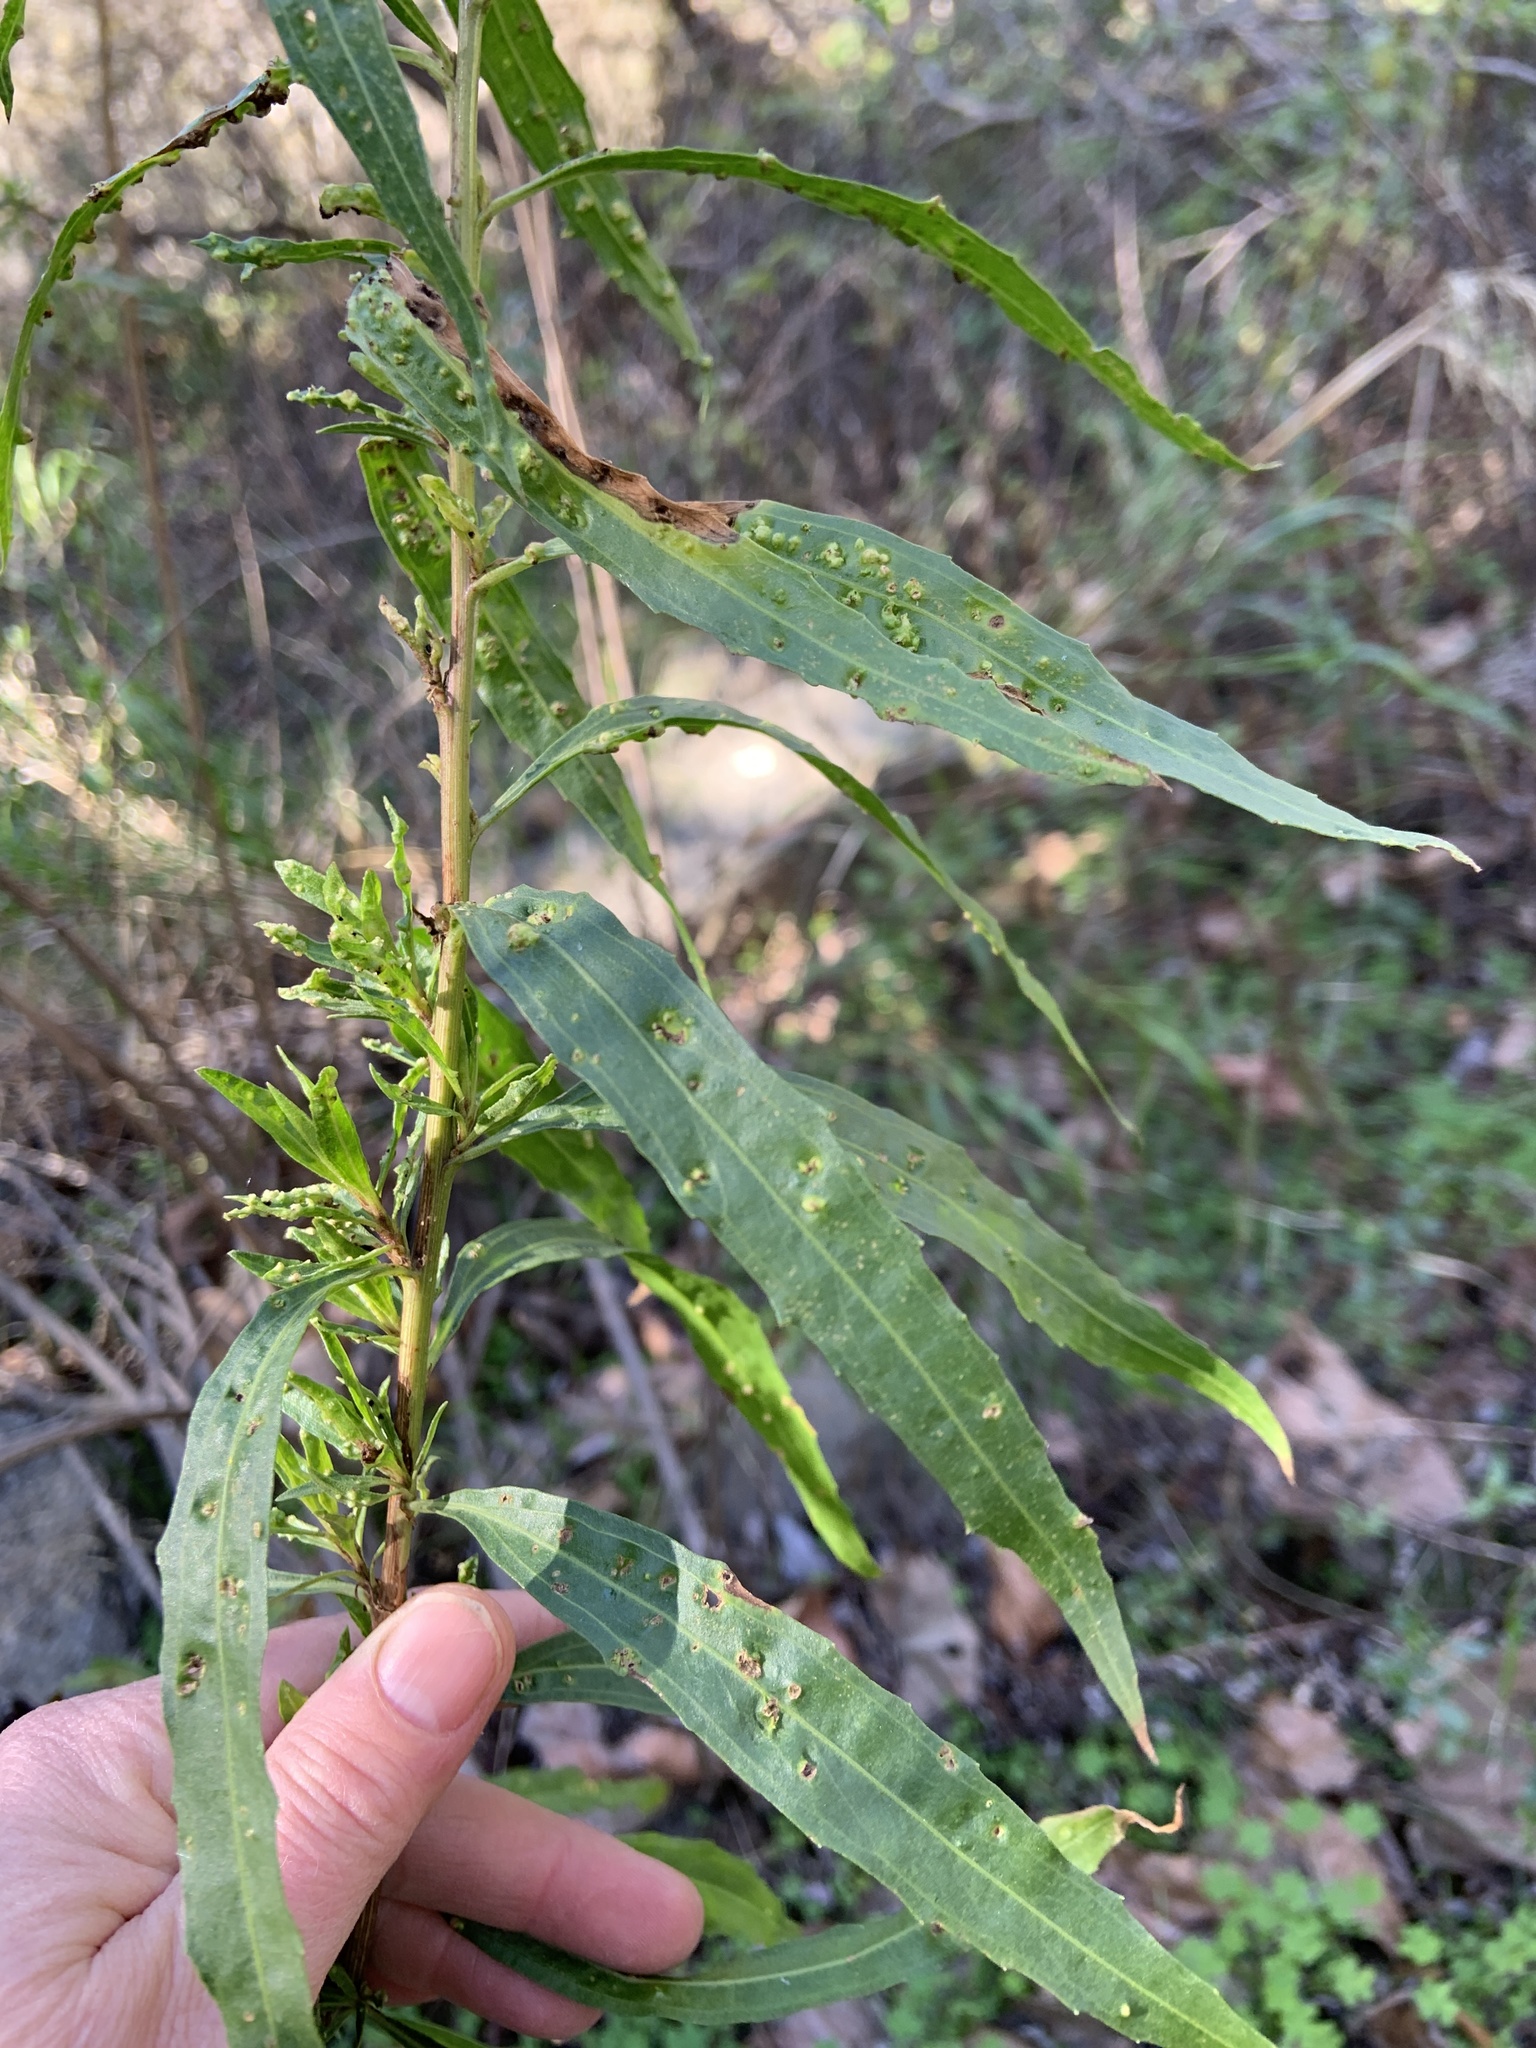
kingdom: Plantae
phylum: Tracheophyta
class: Magnoliopsida
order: Asterales
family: Asteraceae
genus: Baccharis
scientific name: Baccharis salicifolia
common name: Sticky baccharis
